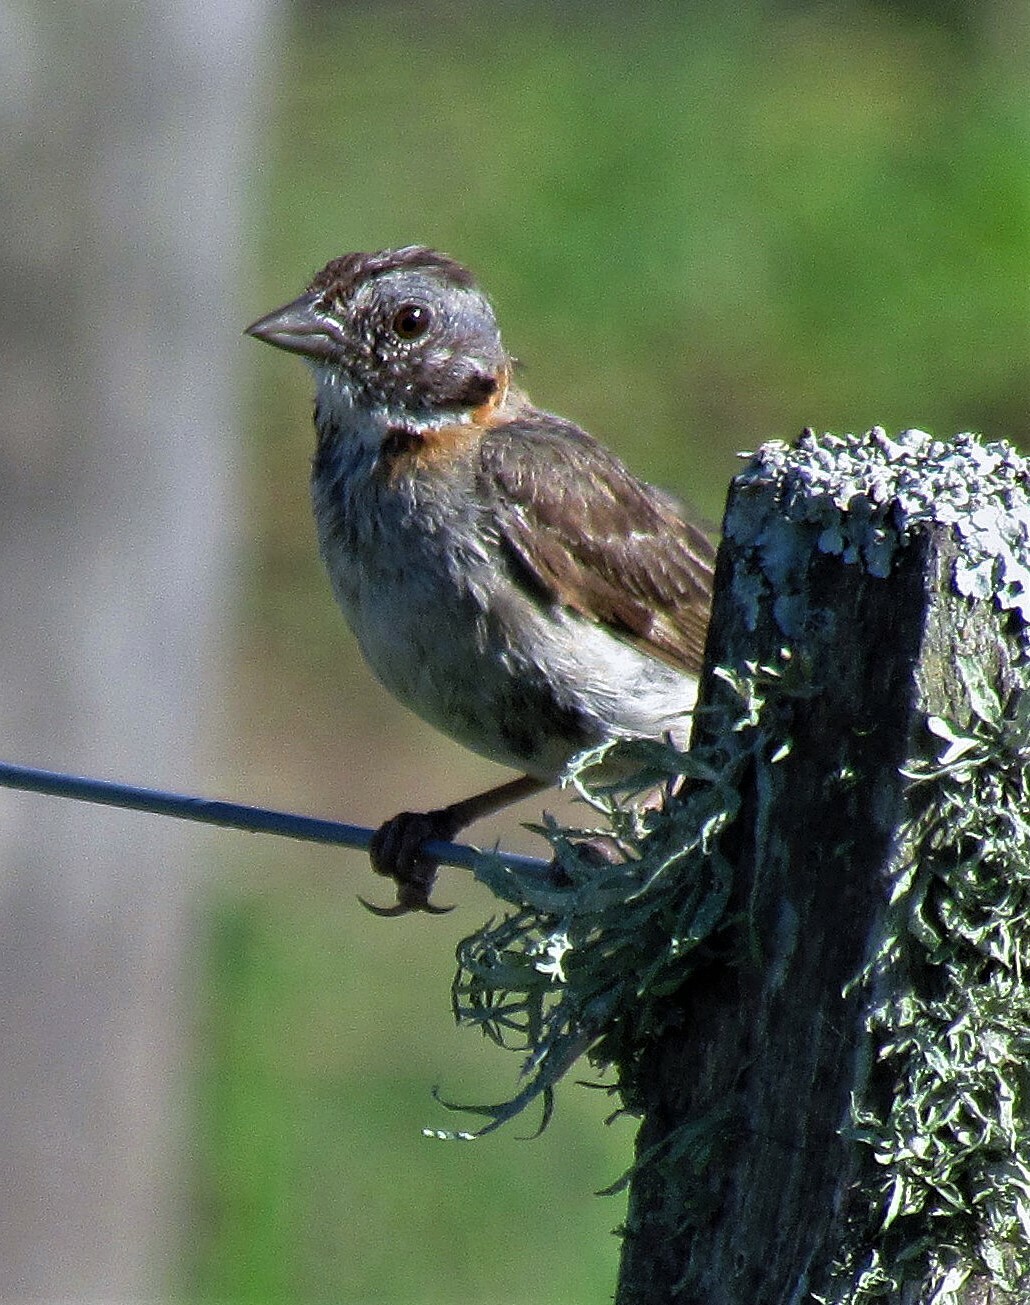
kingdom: Animalia
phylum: Chordata
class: Aves
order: Passeriformes
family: Passerellidae
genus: Zonotrichia
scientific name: Zonotrichia capensis
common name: Rufous-collared sparrow
